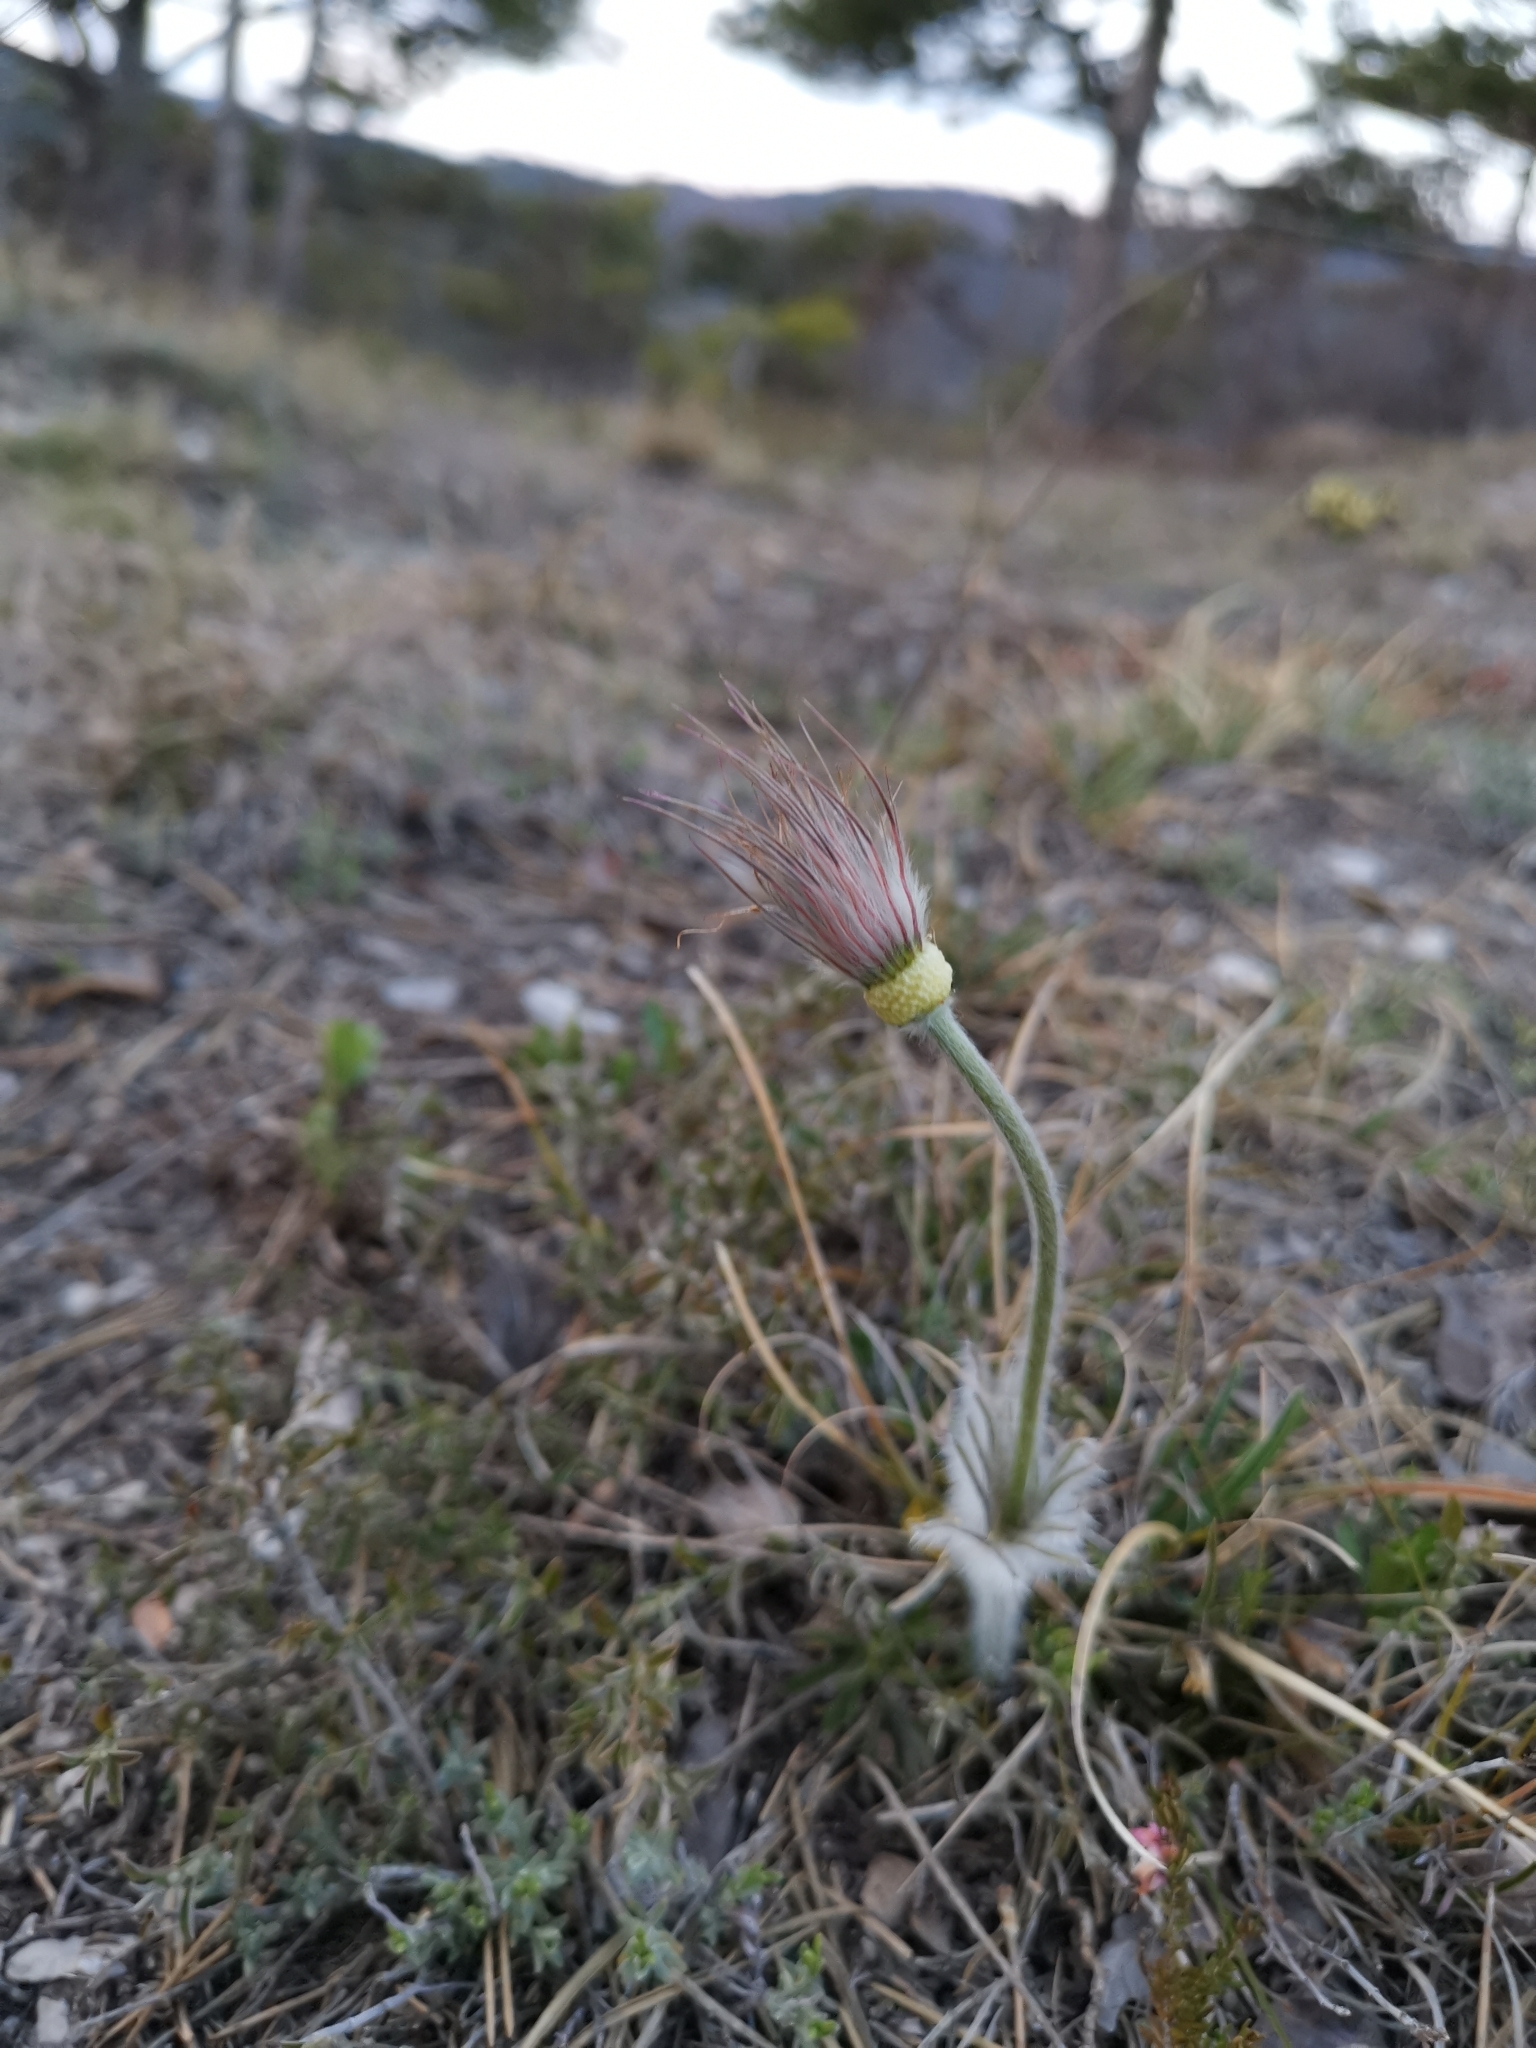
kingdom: Plantae
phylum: Tracheophyta
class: Magnoliopsida
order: Ranunculales
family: Ranunculaceae
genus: Pulsatilla
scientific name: Pulsatilla grandis
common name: Greater pasque flower
